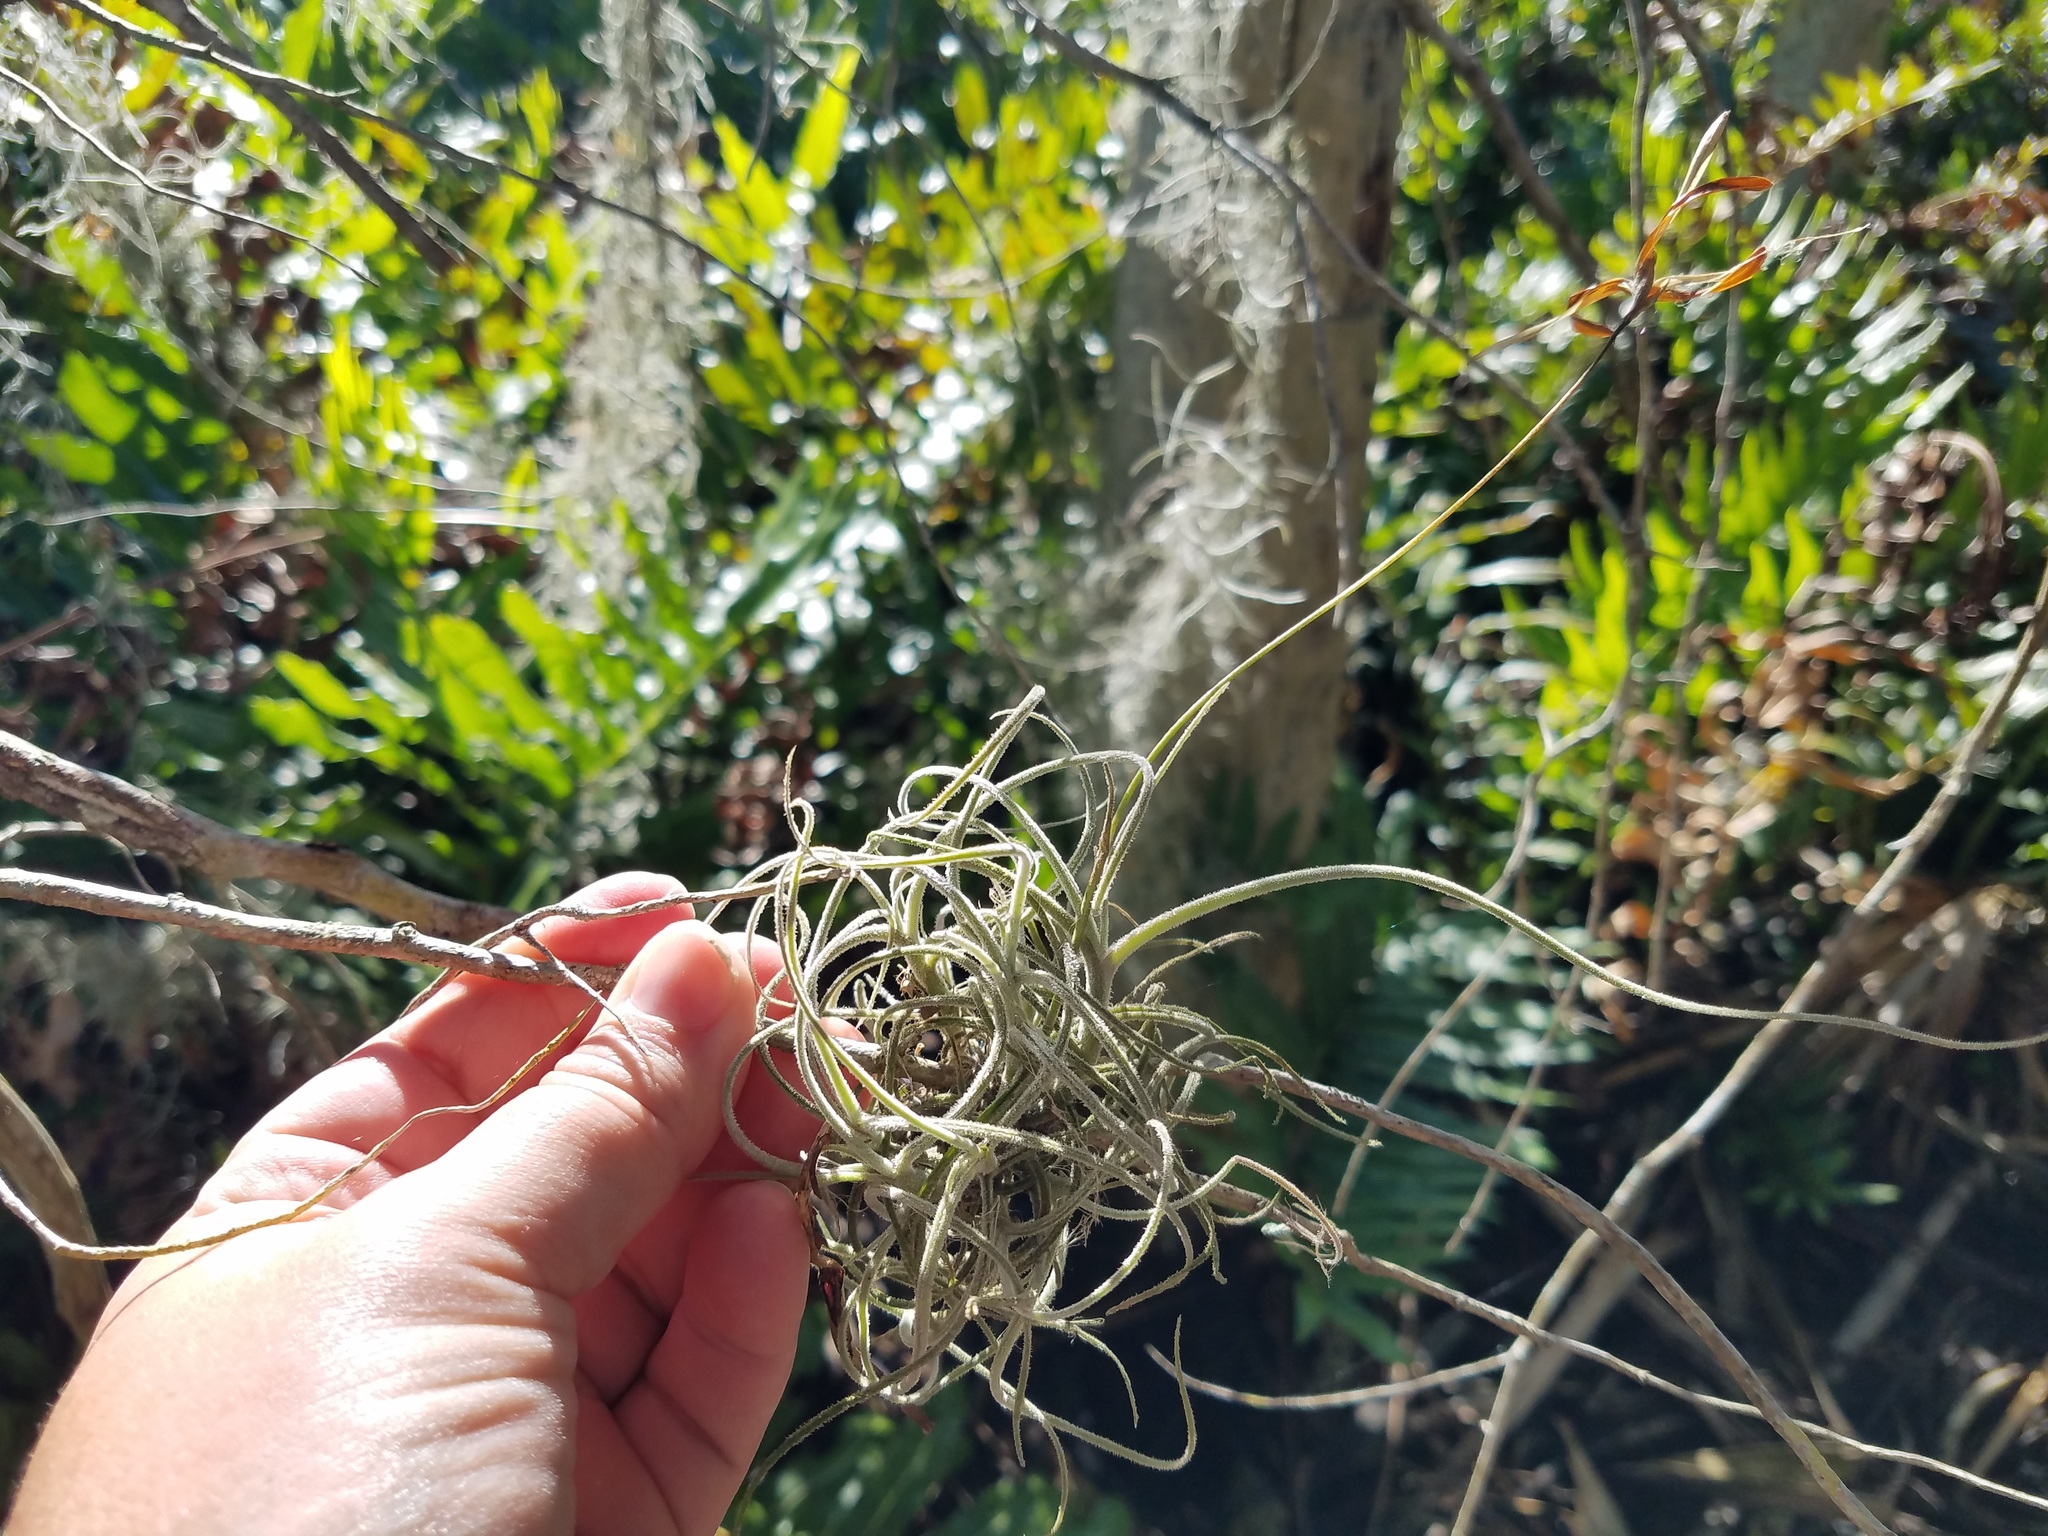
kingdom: Plantae
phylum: Tracheophyta
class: Liliopsida
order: Poales
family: Bromeliaceae
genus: Tillandsia
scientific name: Tillandsia recurvata
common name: Small ballmoss
